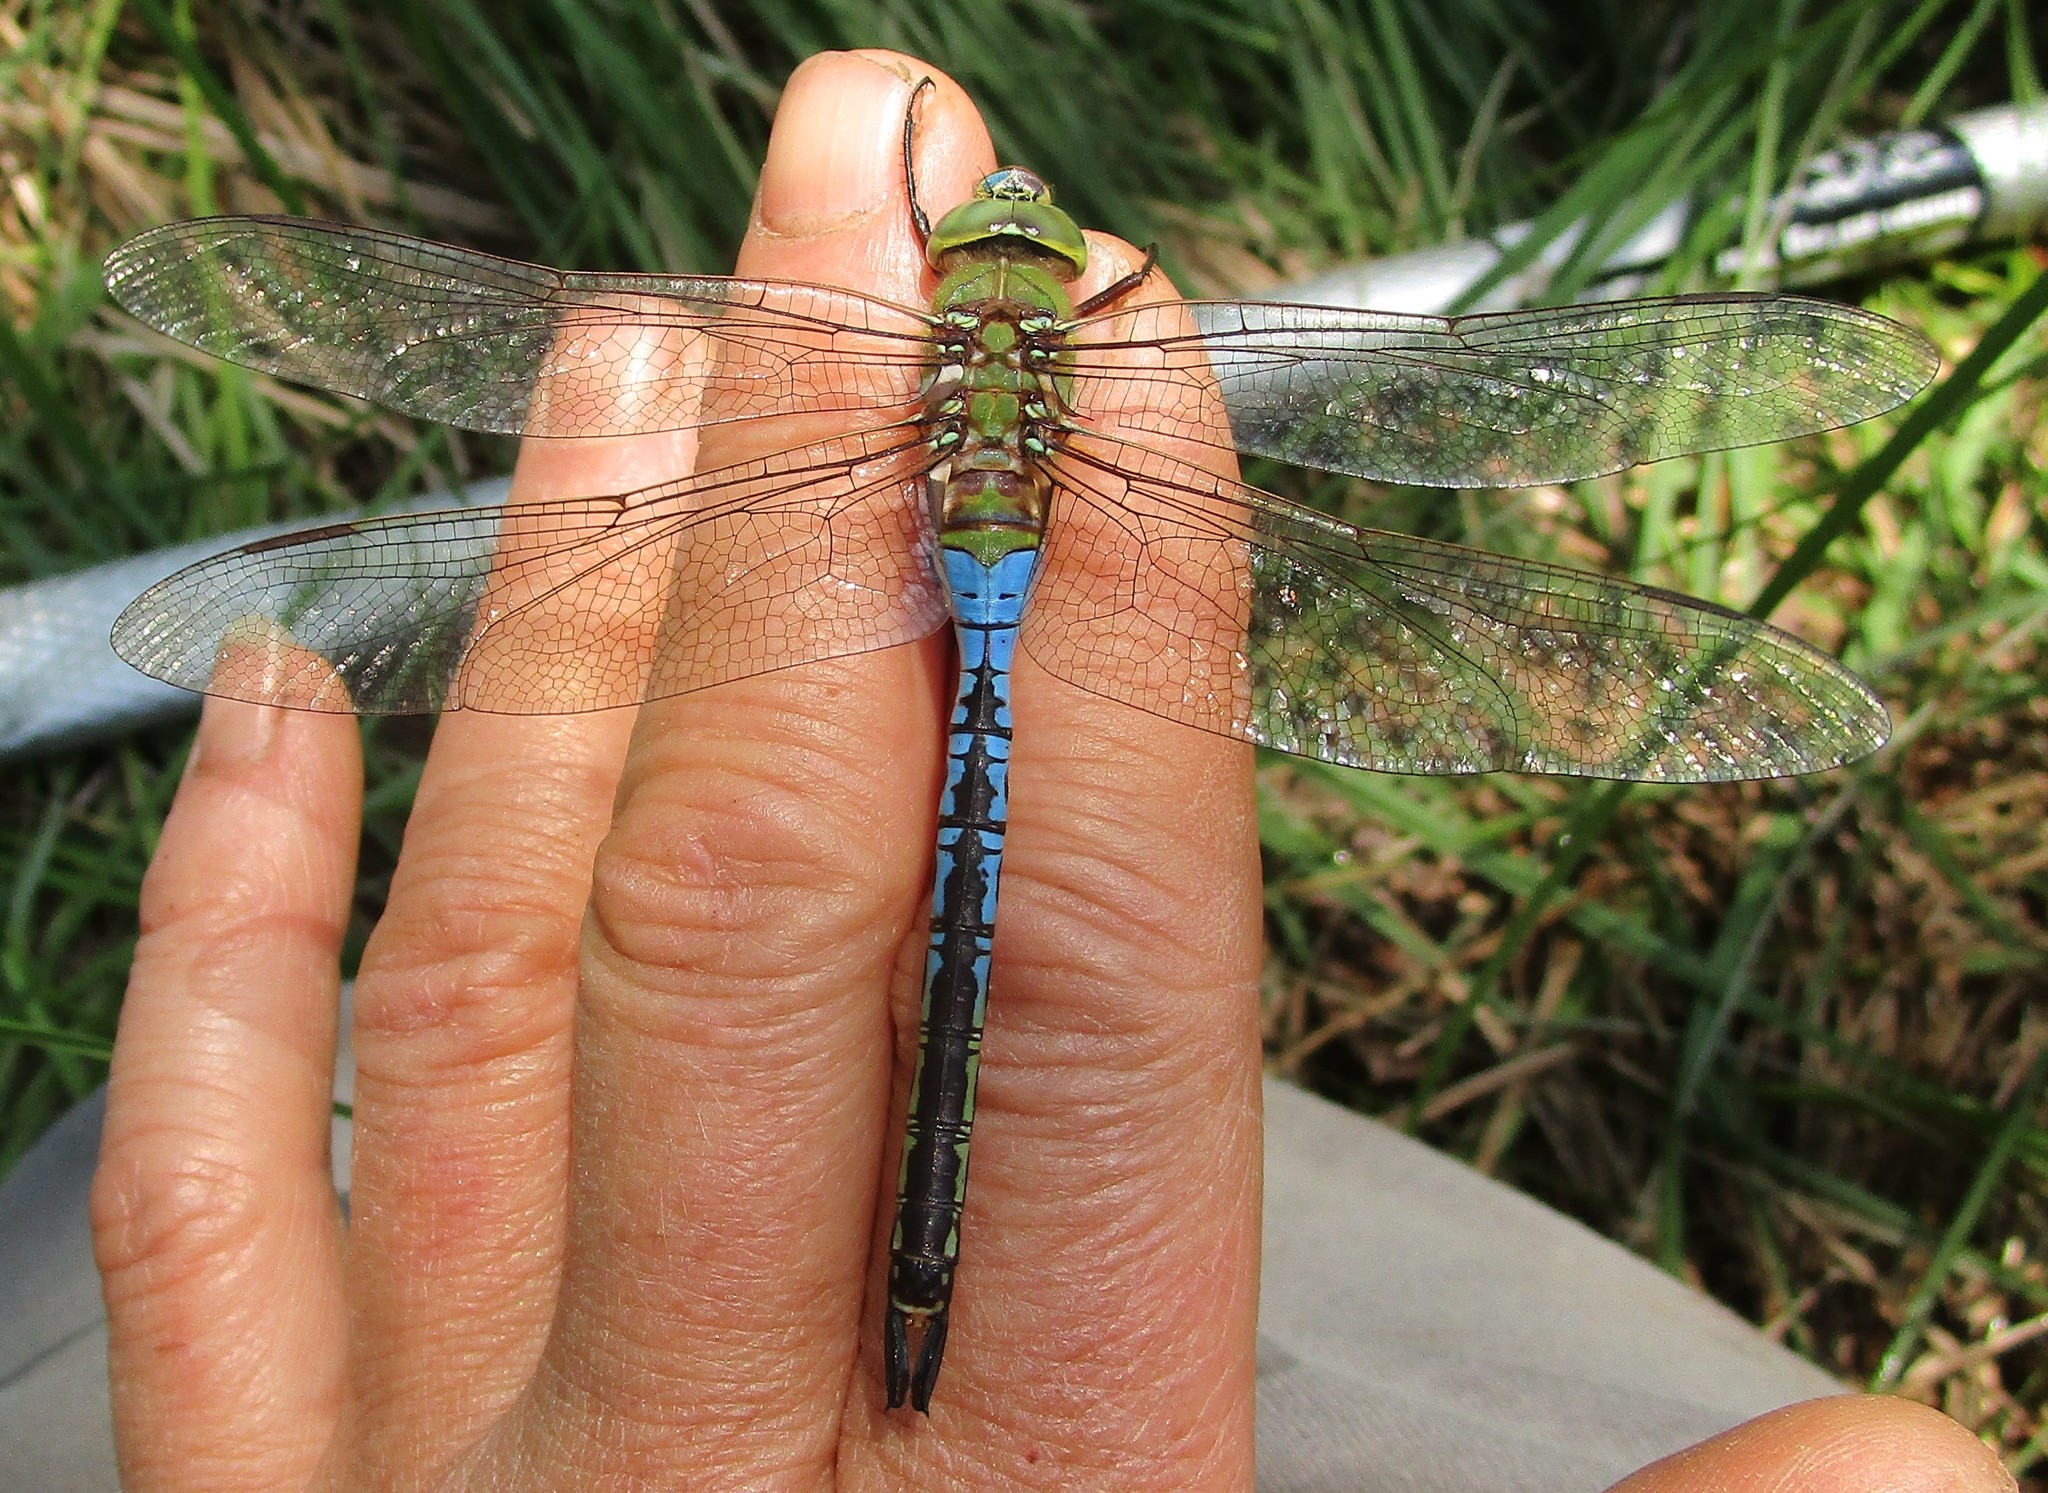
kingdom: Animalia
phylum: Arthropoda
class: Insecta
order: Odonata
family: Aeshnidae
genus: Anax
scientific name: Anax junius
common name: Common green darner
